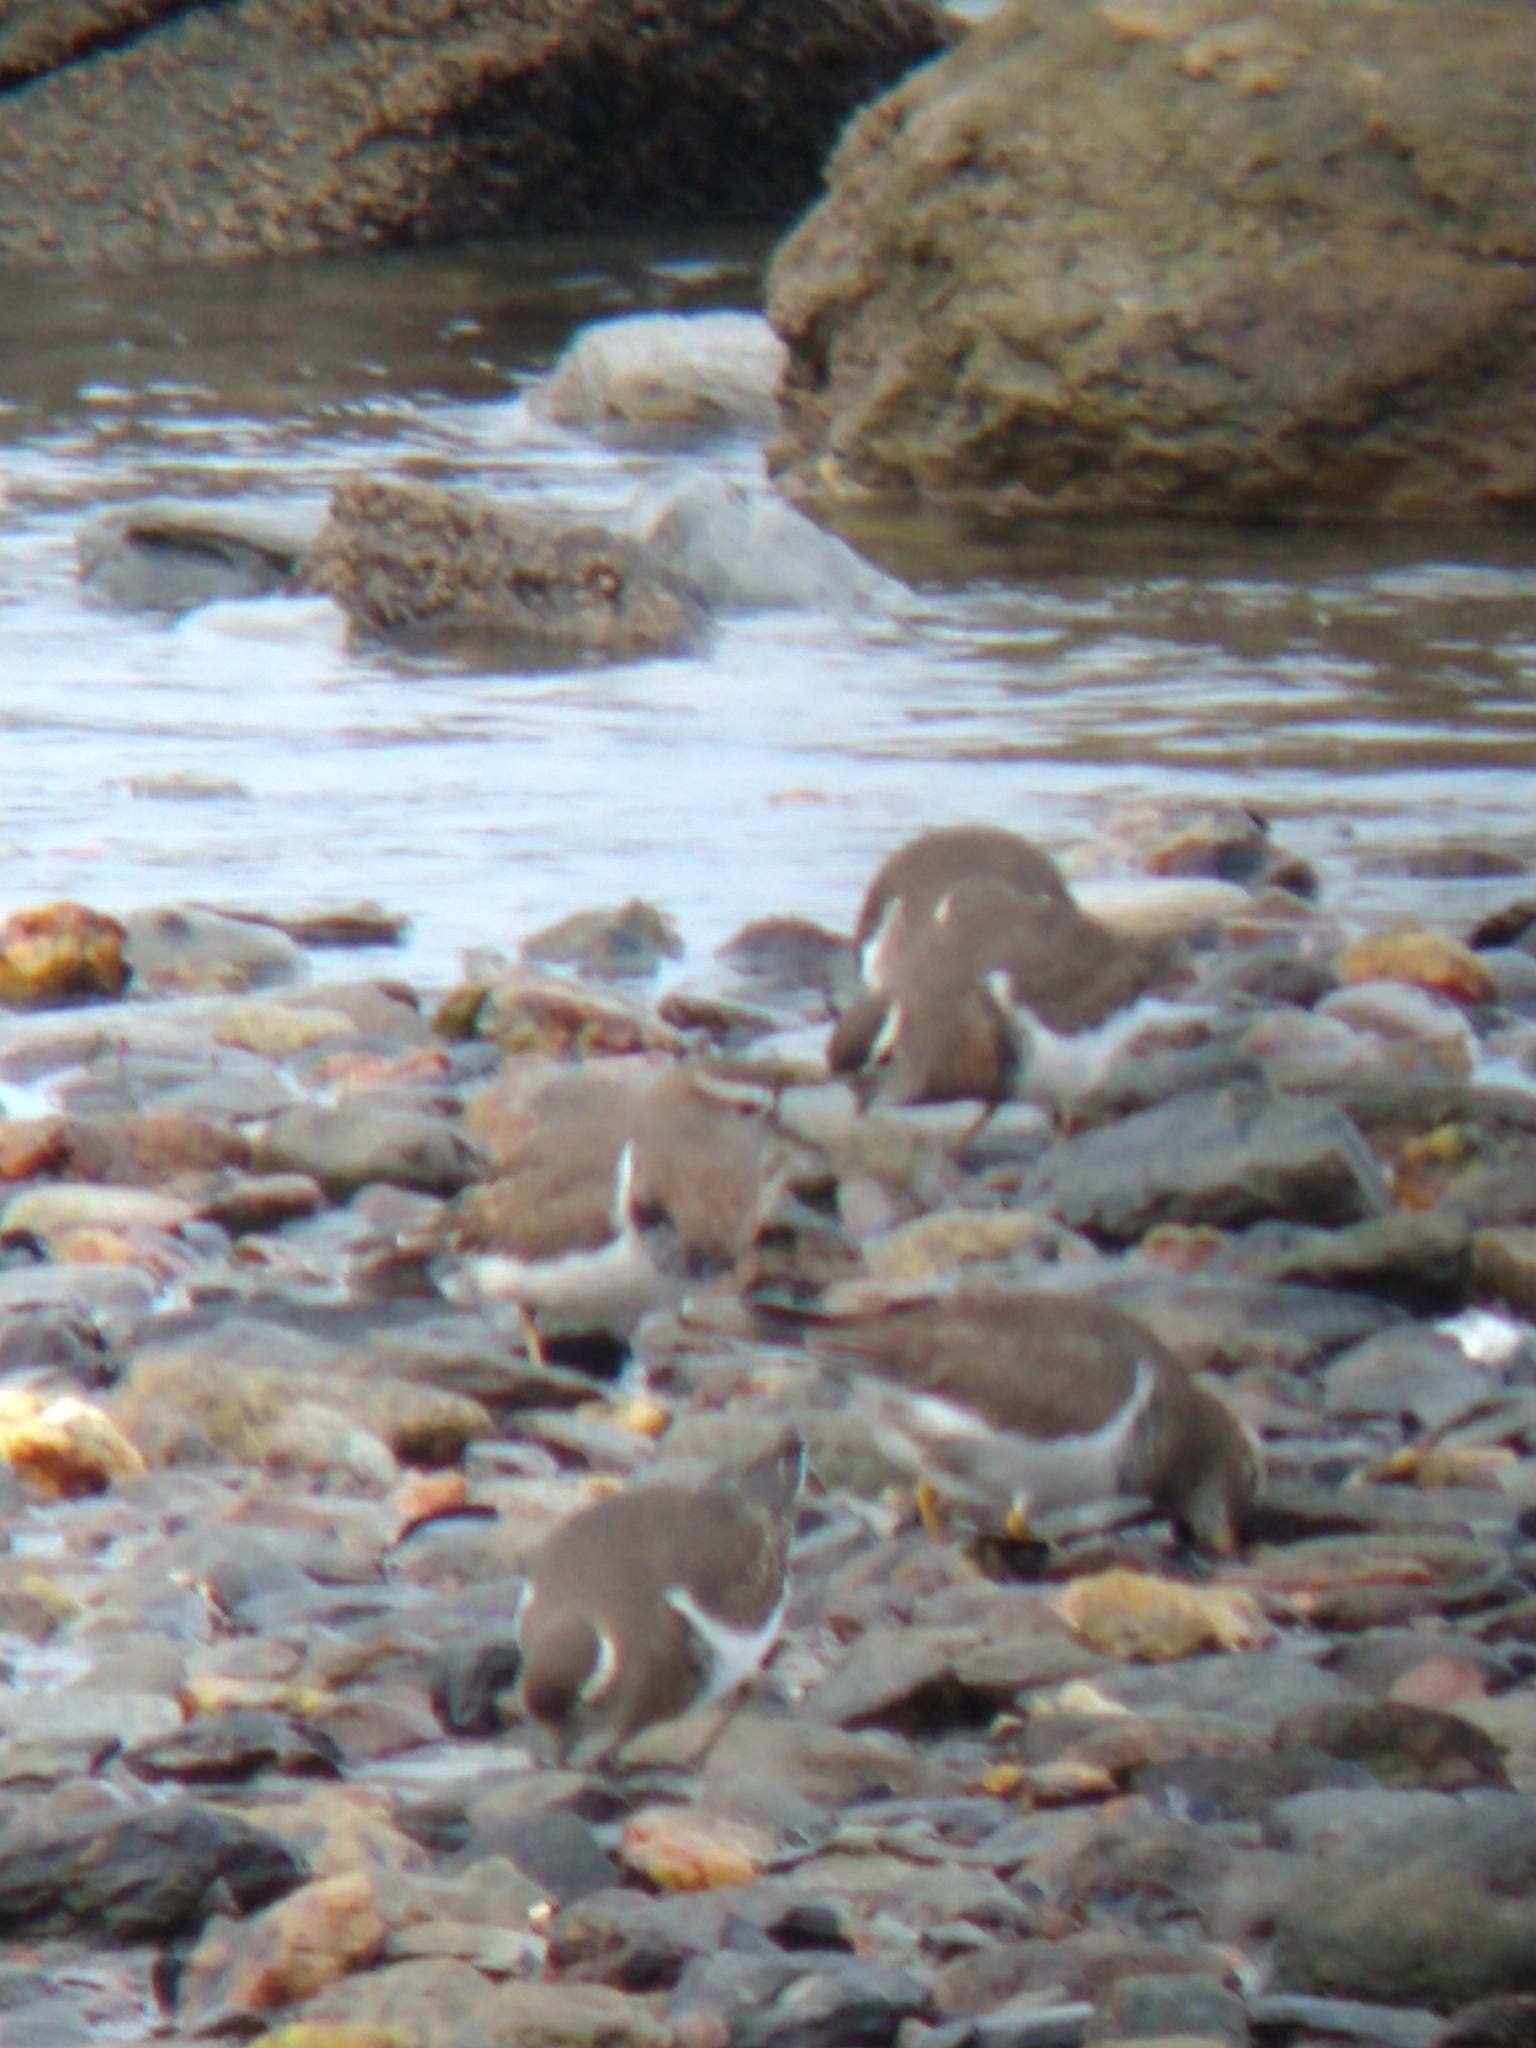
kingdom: Animalia
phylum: Chordata
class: Aves
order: Charadriiformes
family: Charadriidae
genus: Charadrius
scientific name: Charadrius modestus
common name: Rufous-chested plover
